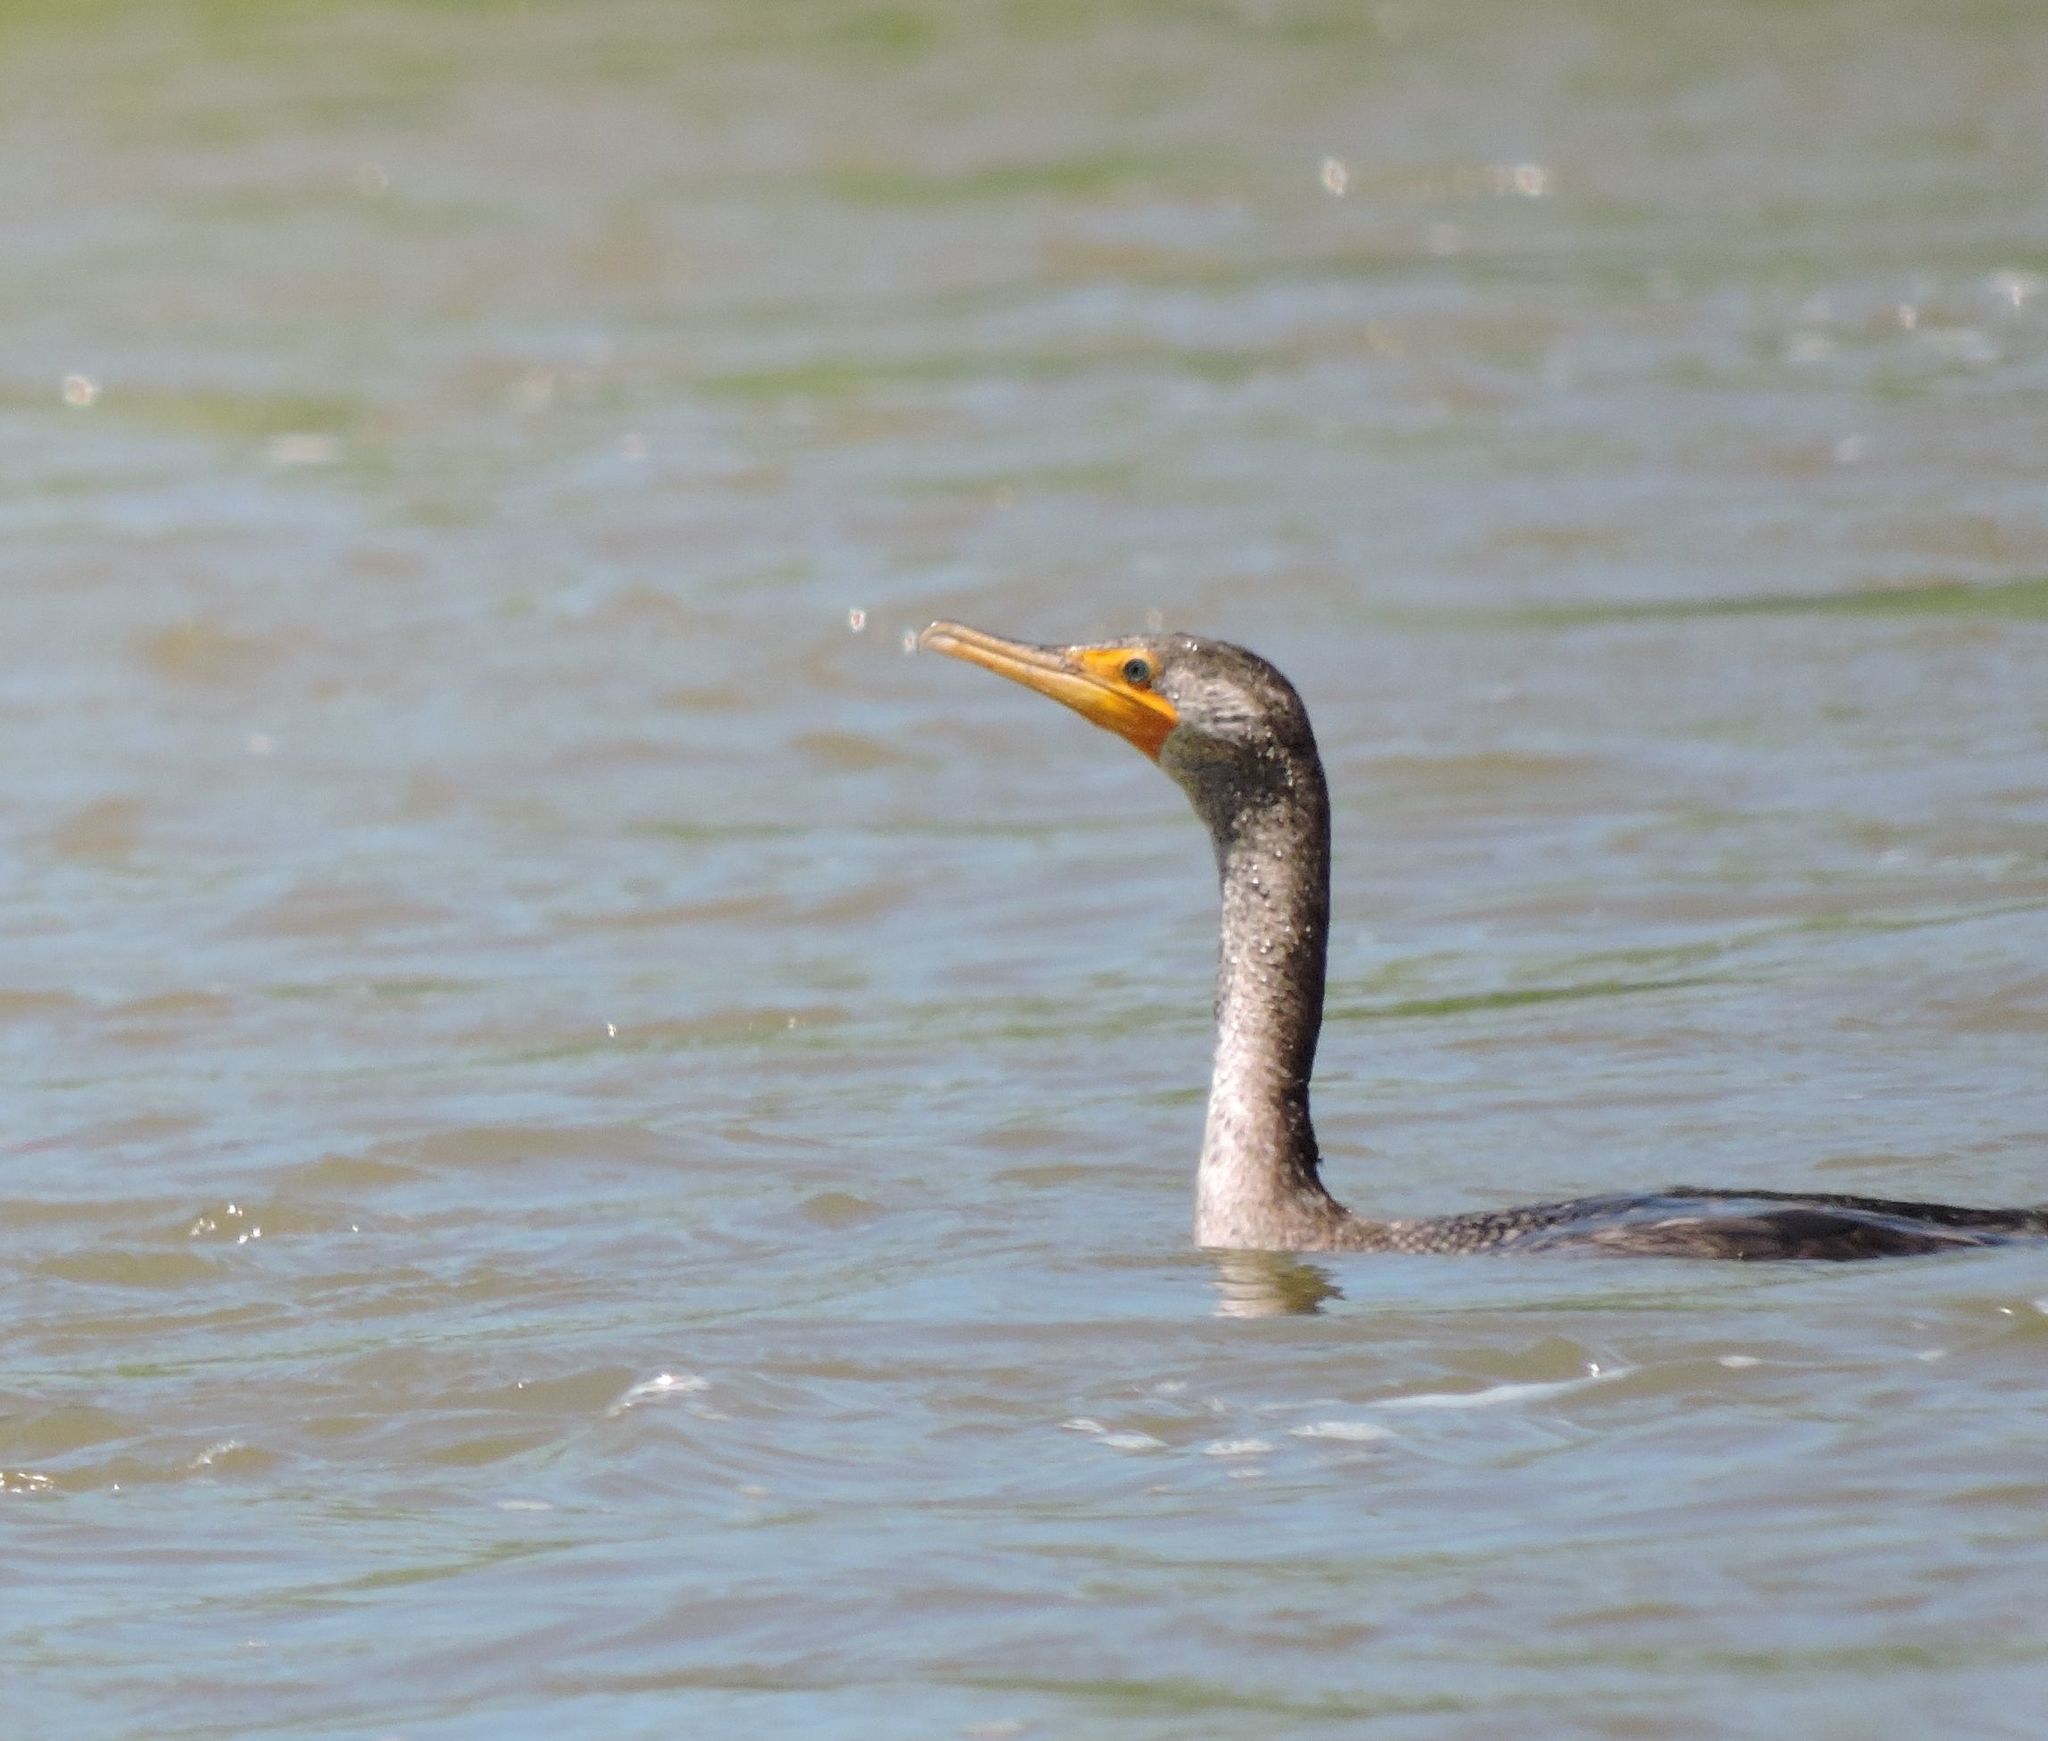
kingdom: Animalia
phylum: Chordata
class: Aves
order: Suliformes
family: Phalacrocoracidae
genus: Phalacrocorax
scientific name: Phalacrocorax auritus
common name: Double-crested cormorant
